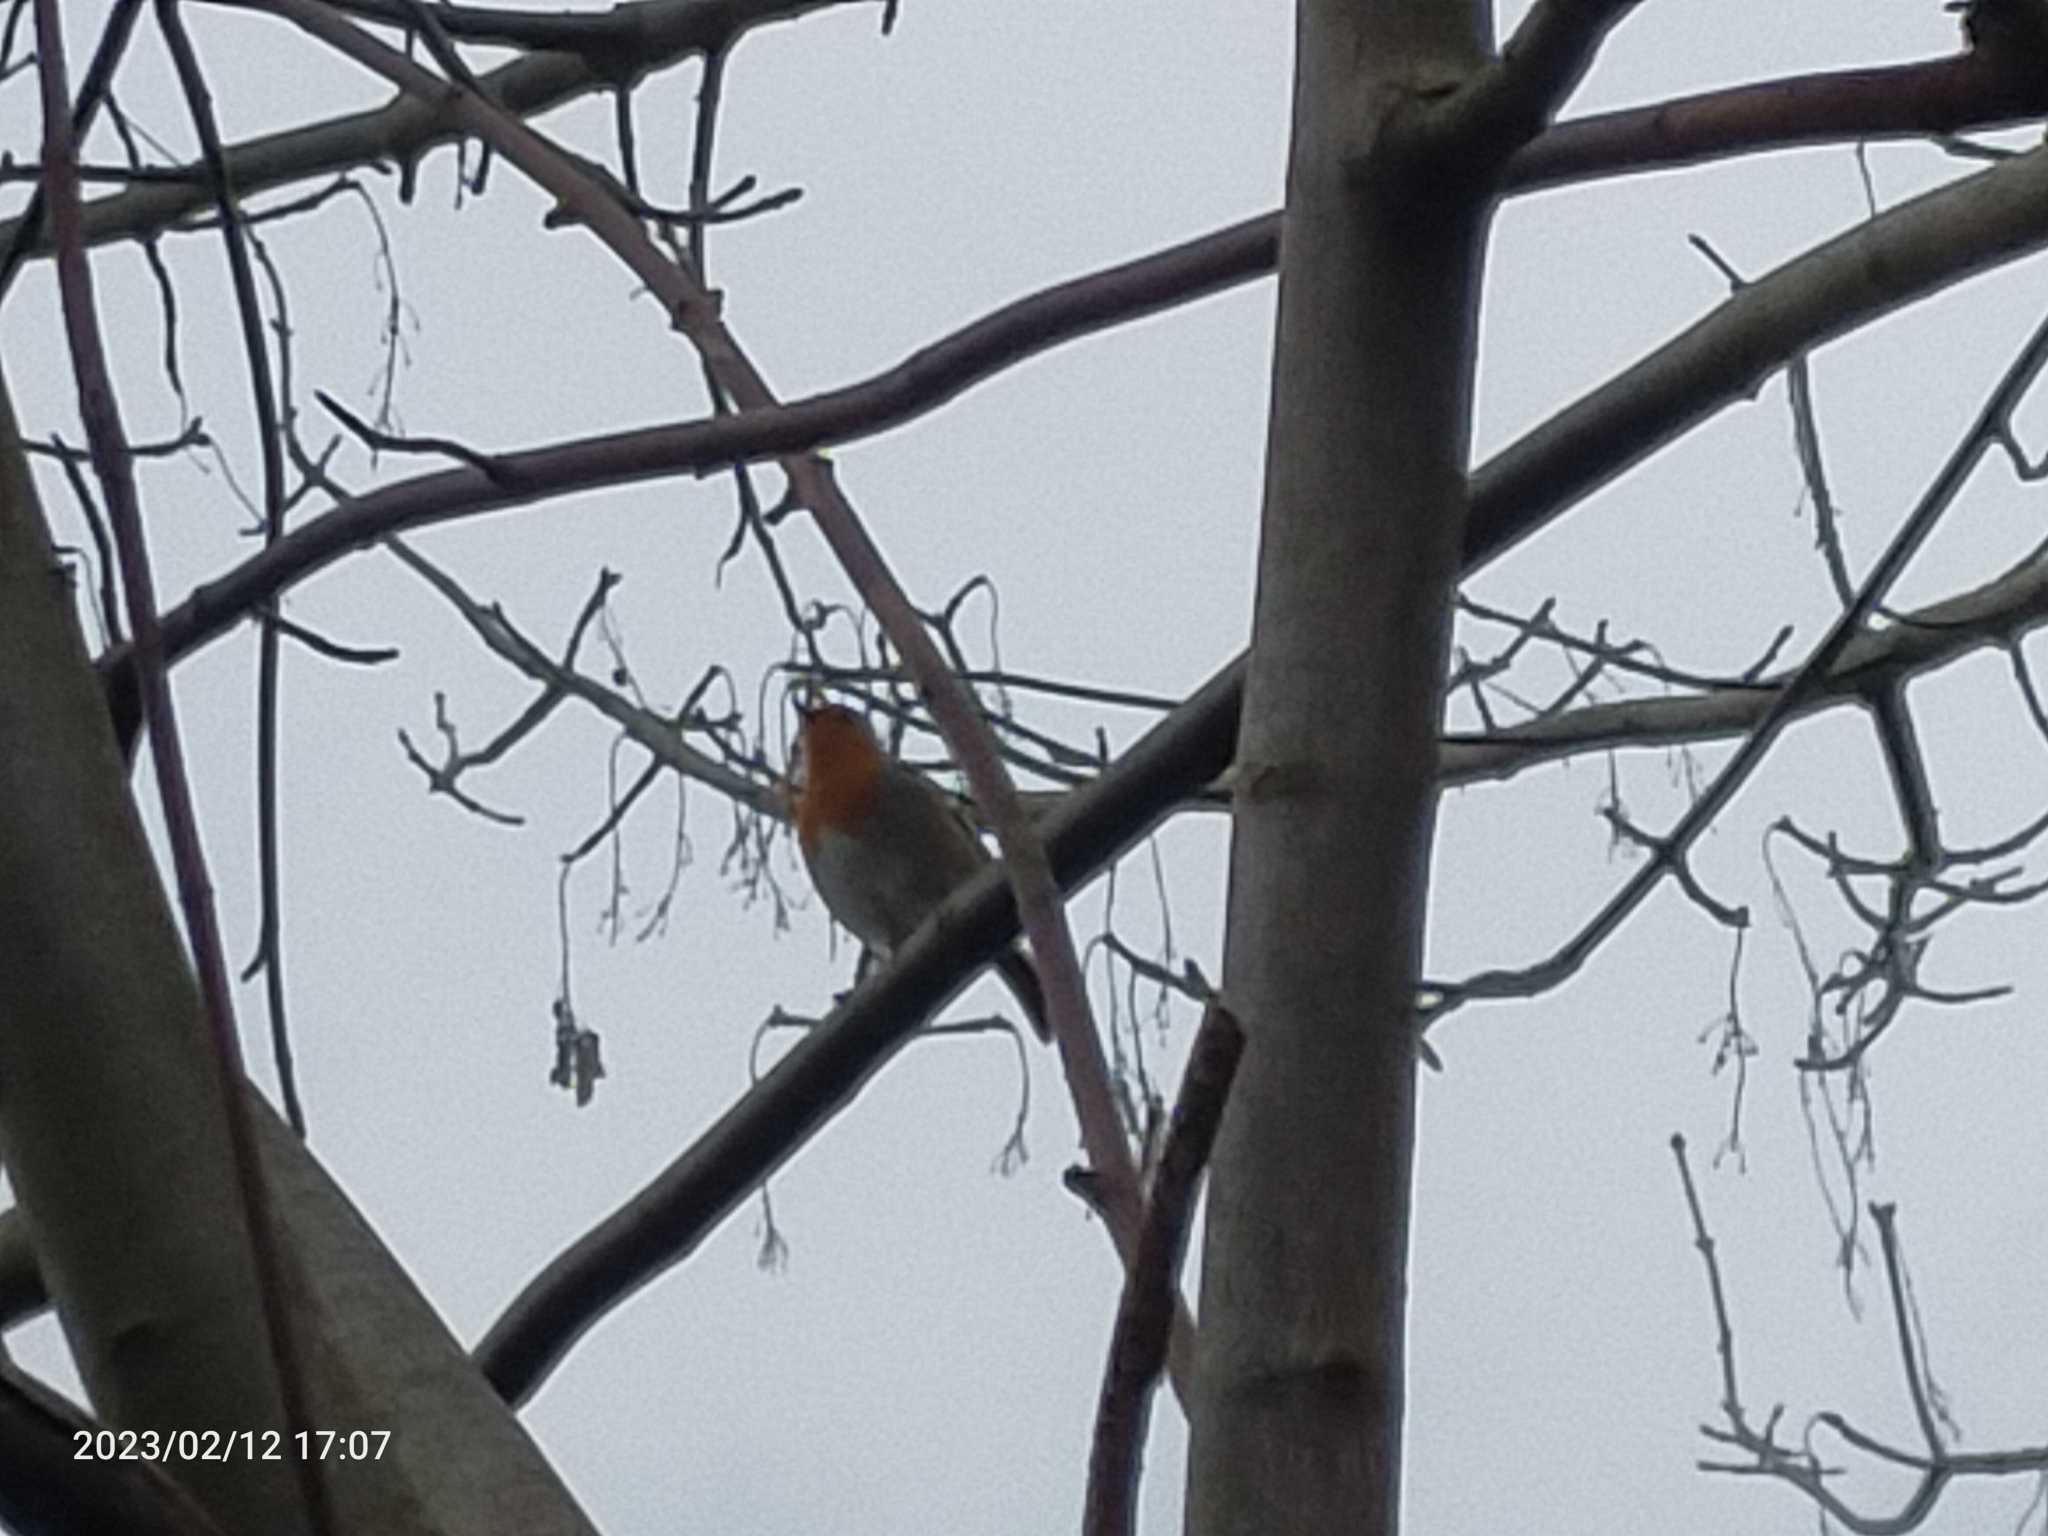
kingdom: Animalia
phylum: Chordata
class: Aves
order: Passeriformes
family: Muscicapidae
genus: Erithacus
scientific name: Erithacus rubecula
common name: European robin
